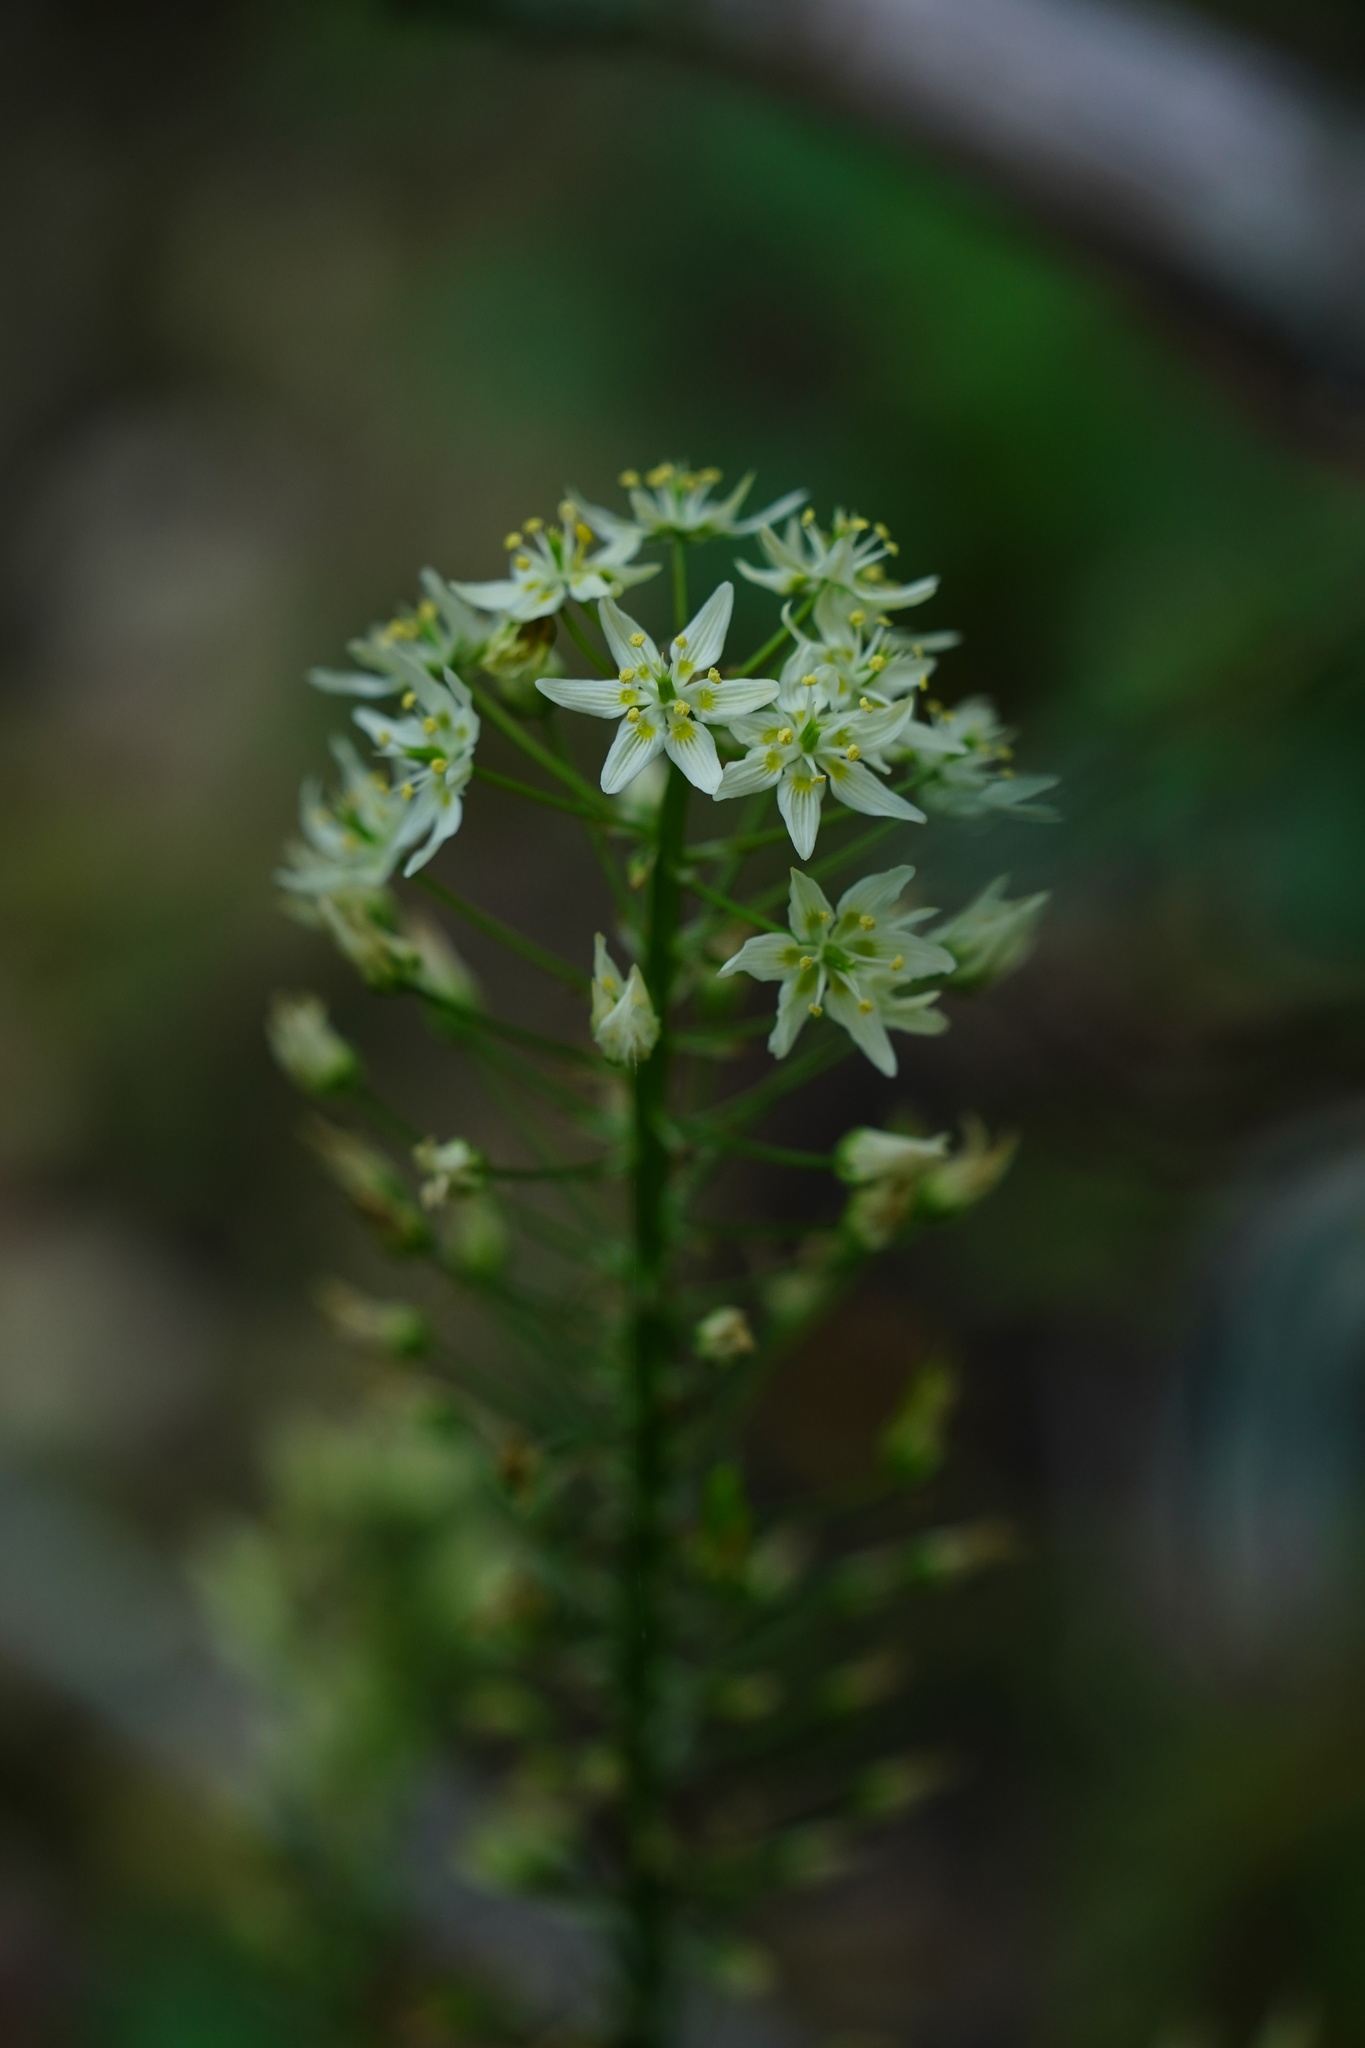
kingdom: Plantae
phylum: Tracheophyta
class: Liliopsida
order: Liliales
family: Melanthiaceae
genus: Toxicoscordion
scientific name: Toxicoscordion fremontii
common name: Fremont's death camas
